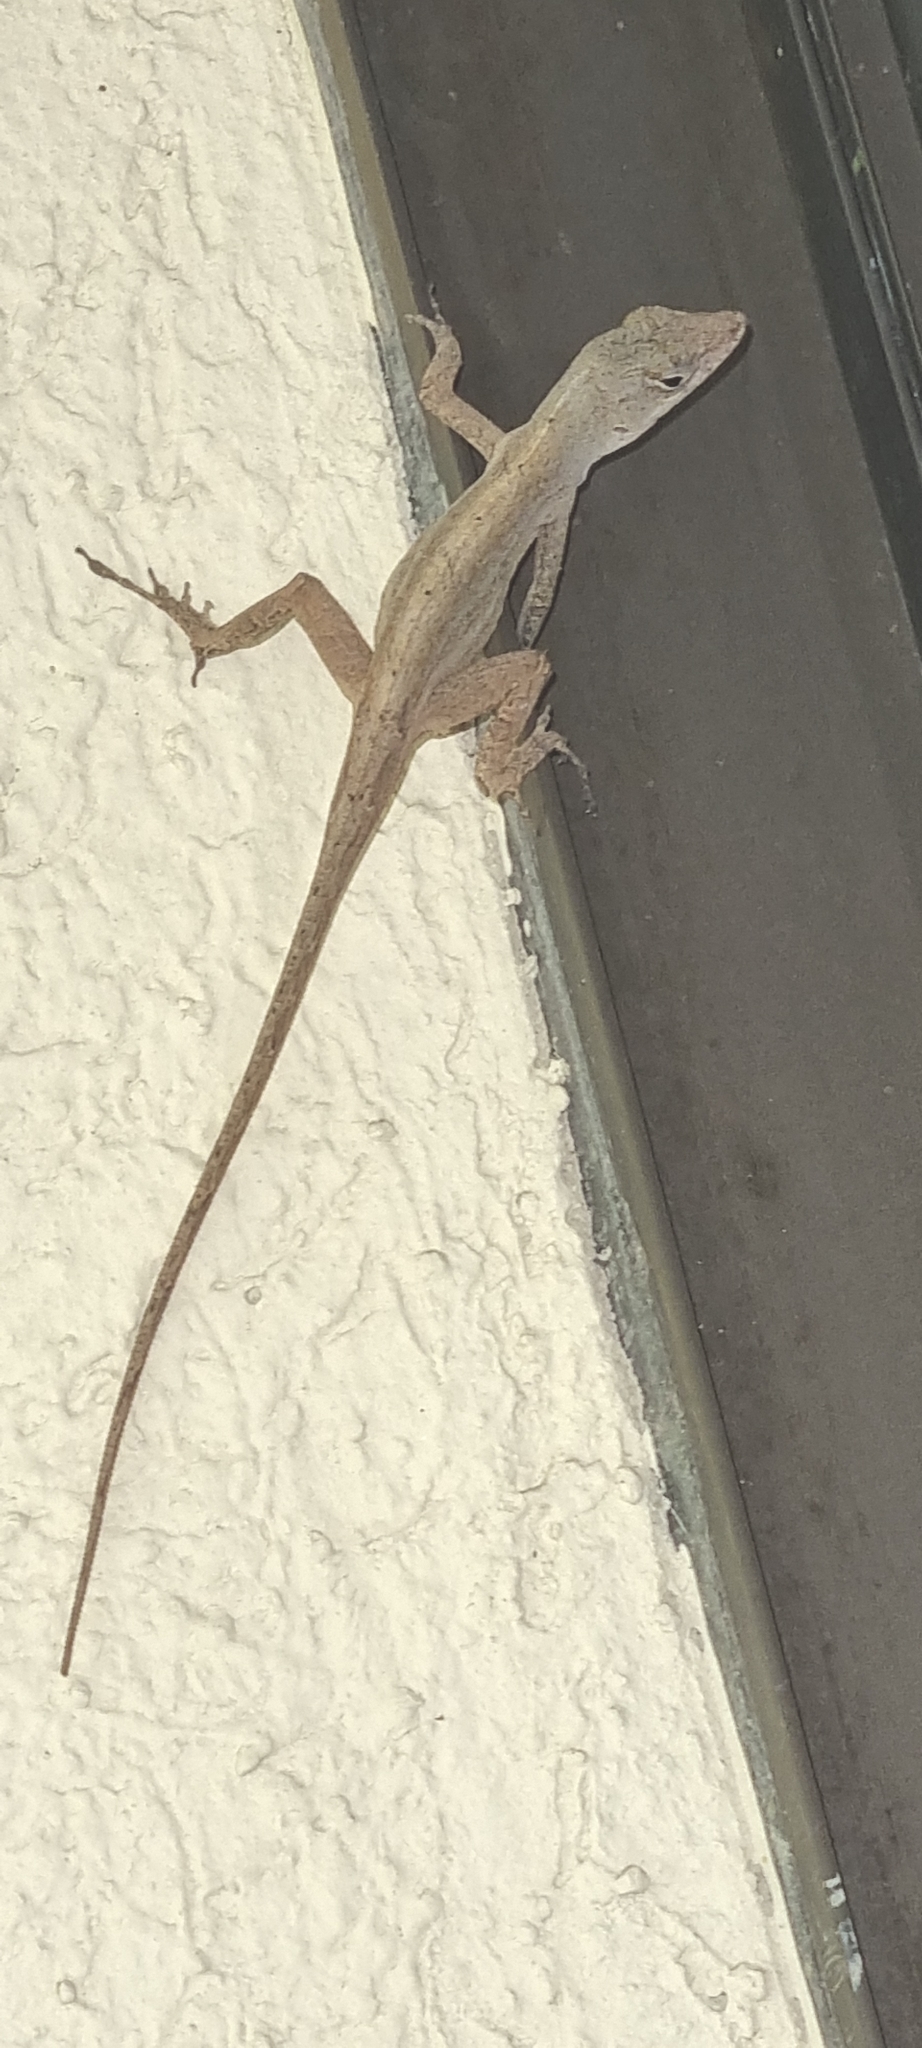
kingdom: Animalia
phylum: Chordata
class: Squamata
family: Dactyloidae
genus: Anolis
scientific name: Anolis sagrei
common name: Brown anole
